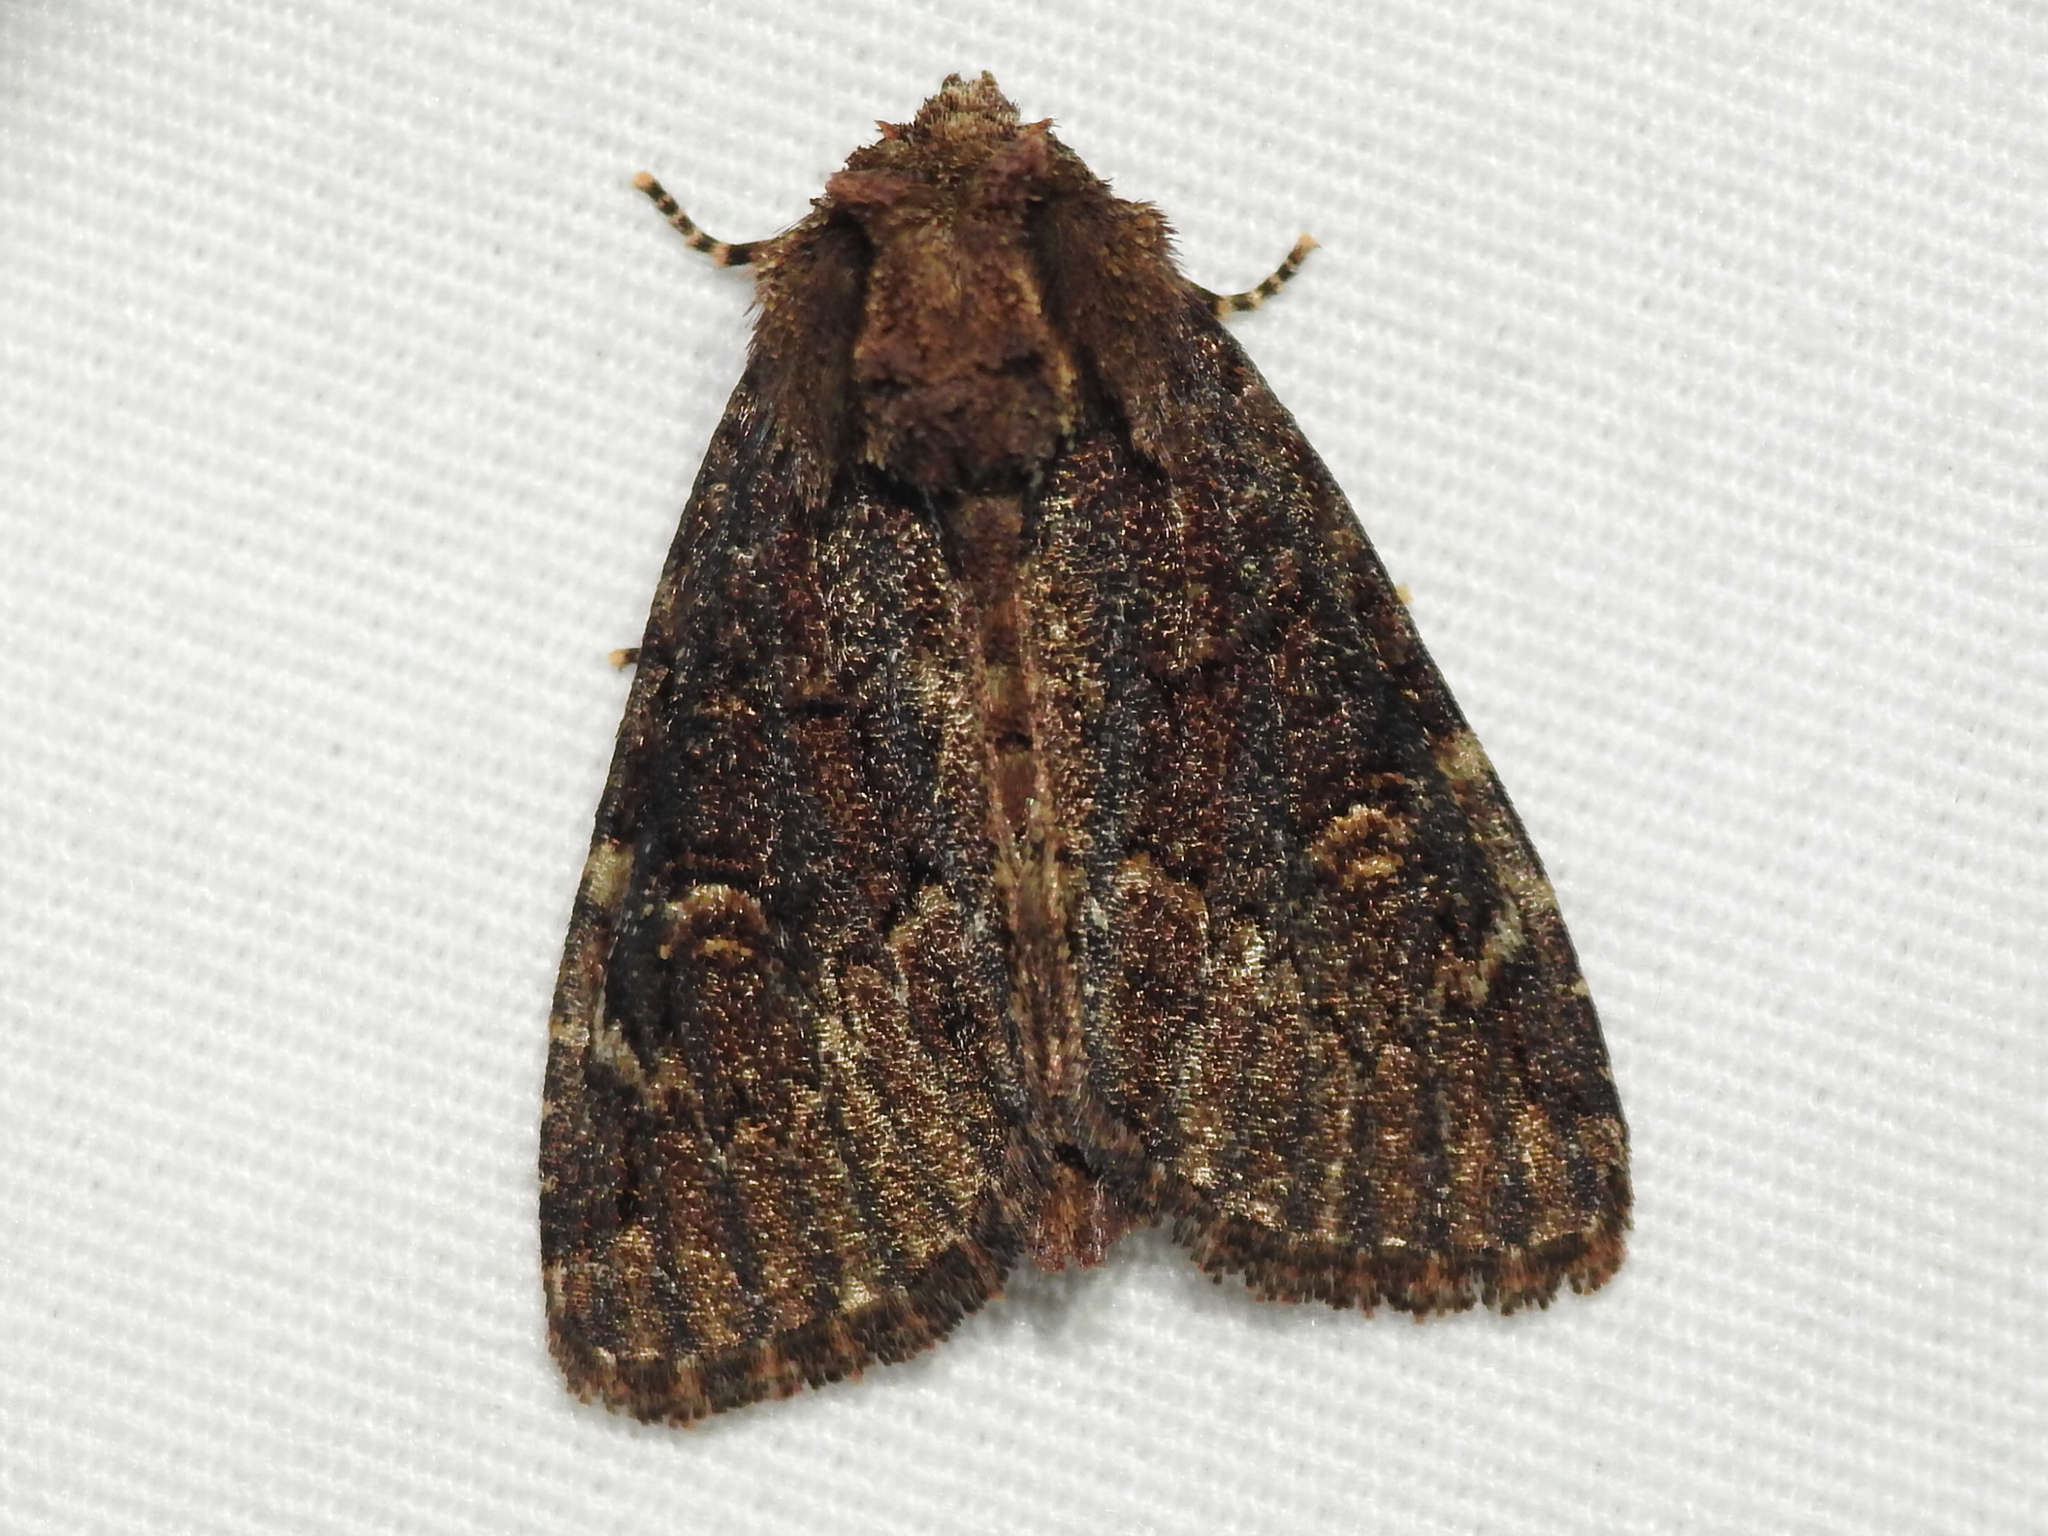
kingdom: Animalia
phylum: Arthropoda
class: Insecta
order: Lepidoptera
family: Noctuidae
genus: Phosphila
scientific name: Phosphila turbulenta
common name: Turbulent phosphila moth
